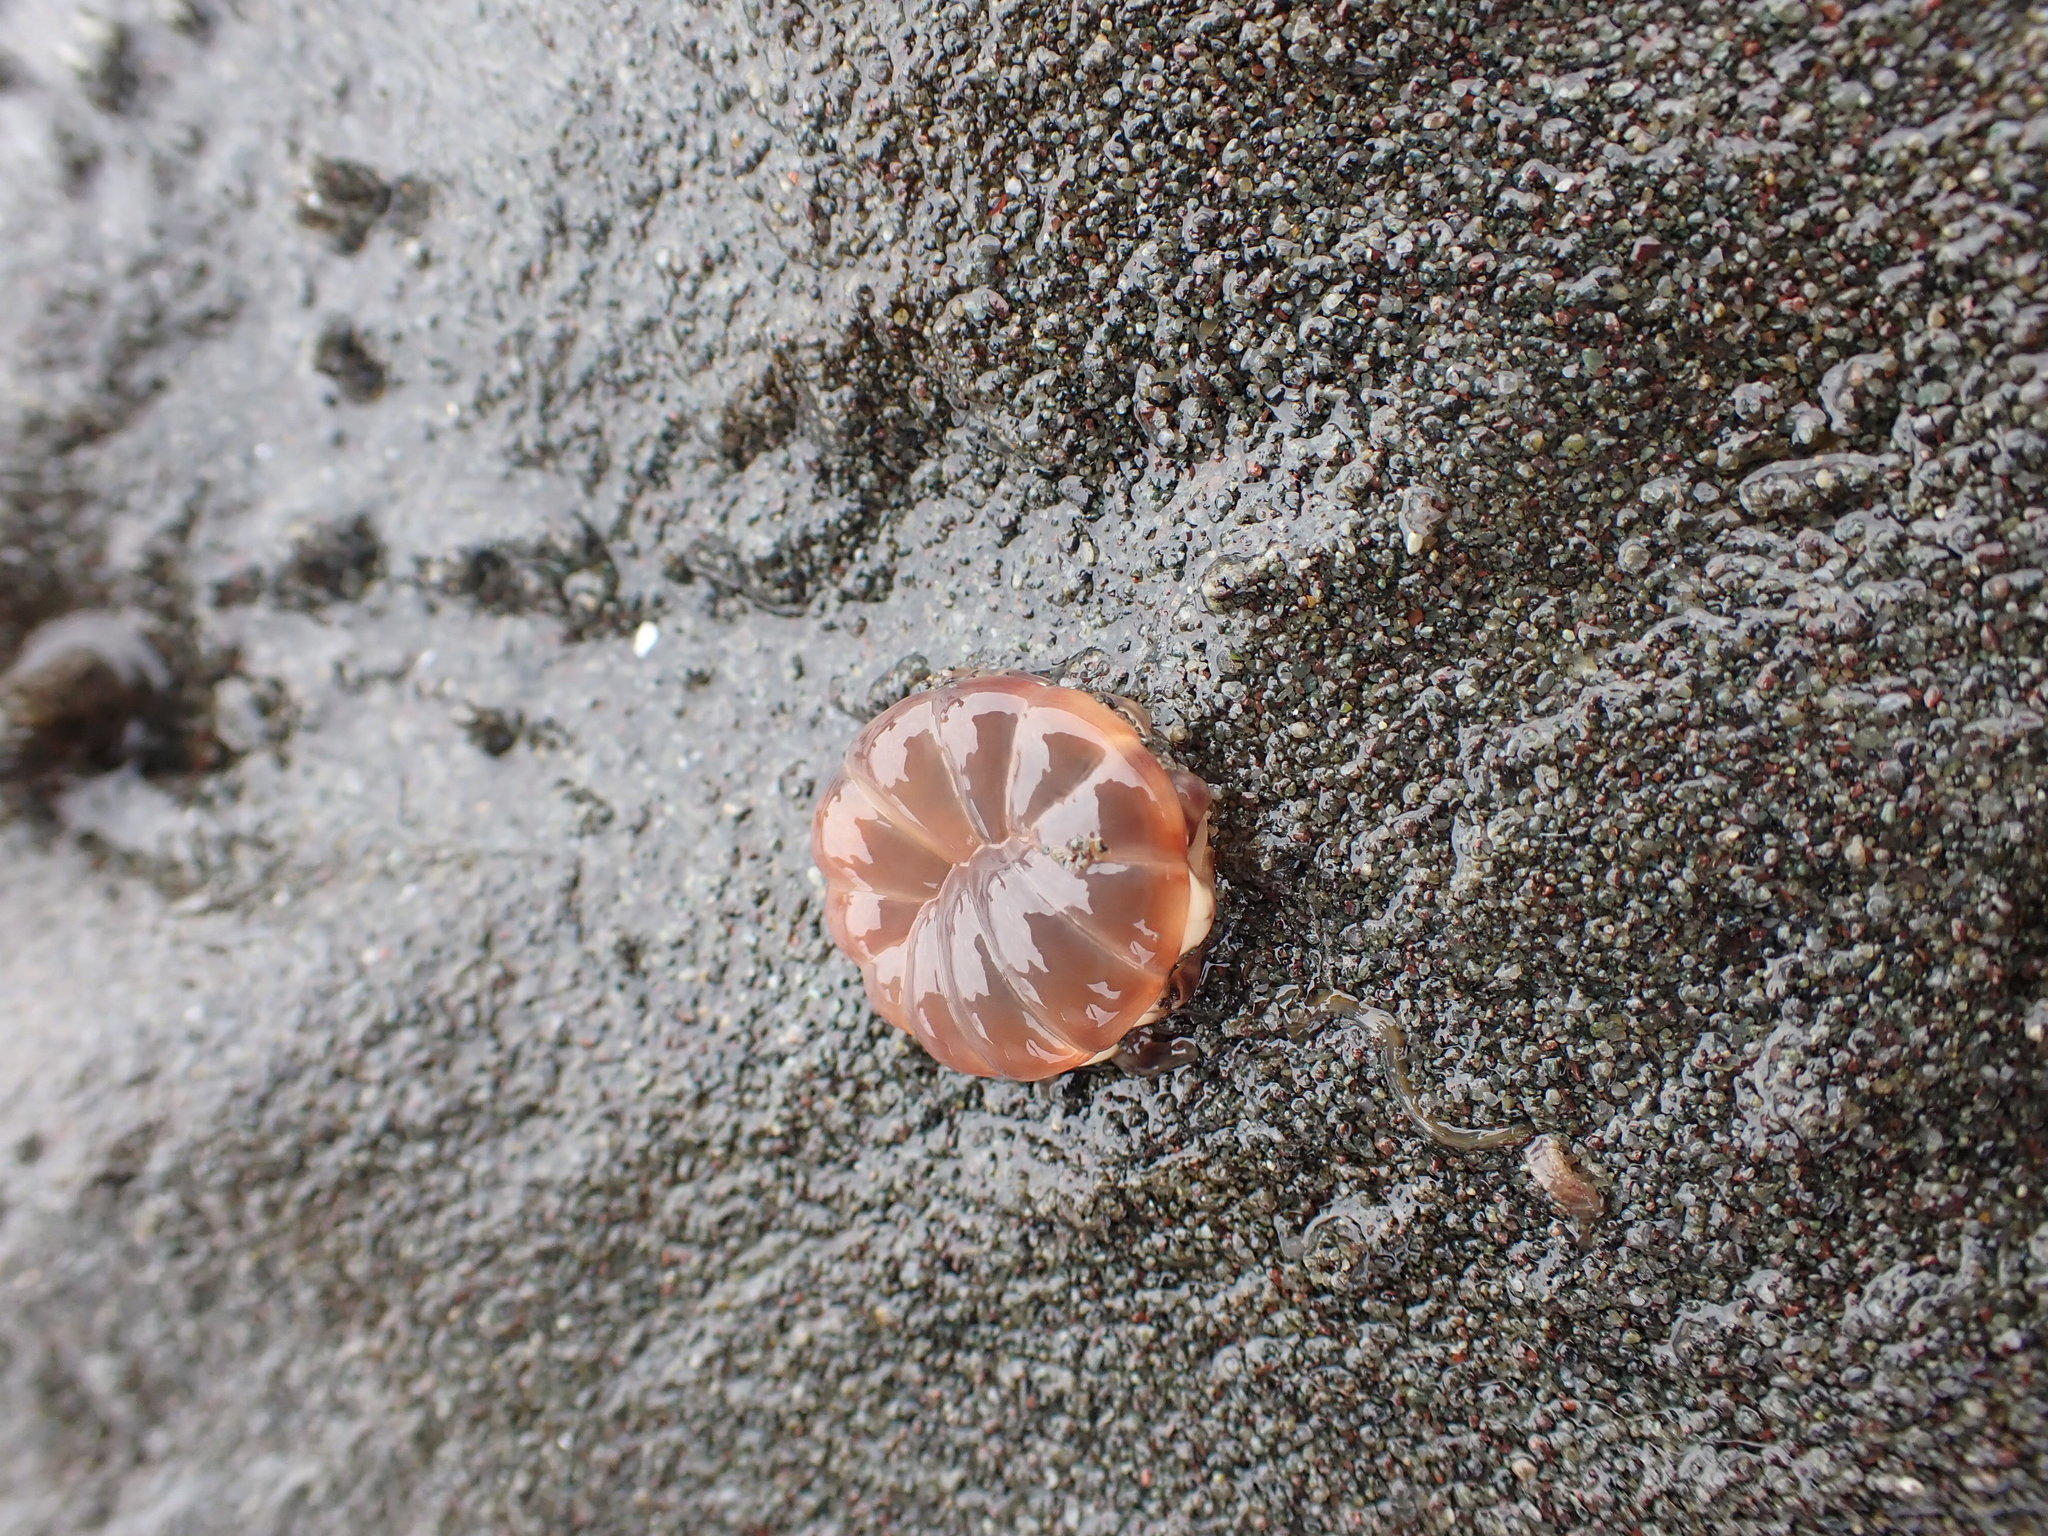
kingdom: Animalia
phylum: Cnidaria
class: Anthozoa
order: Actiniaria
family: Peachiidae
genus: Peachia
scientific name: Peachia quinquecapitata
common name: Twelve-tentacled parasitic anemone
